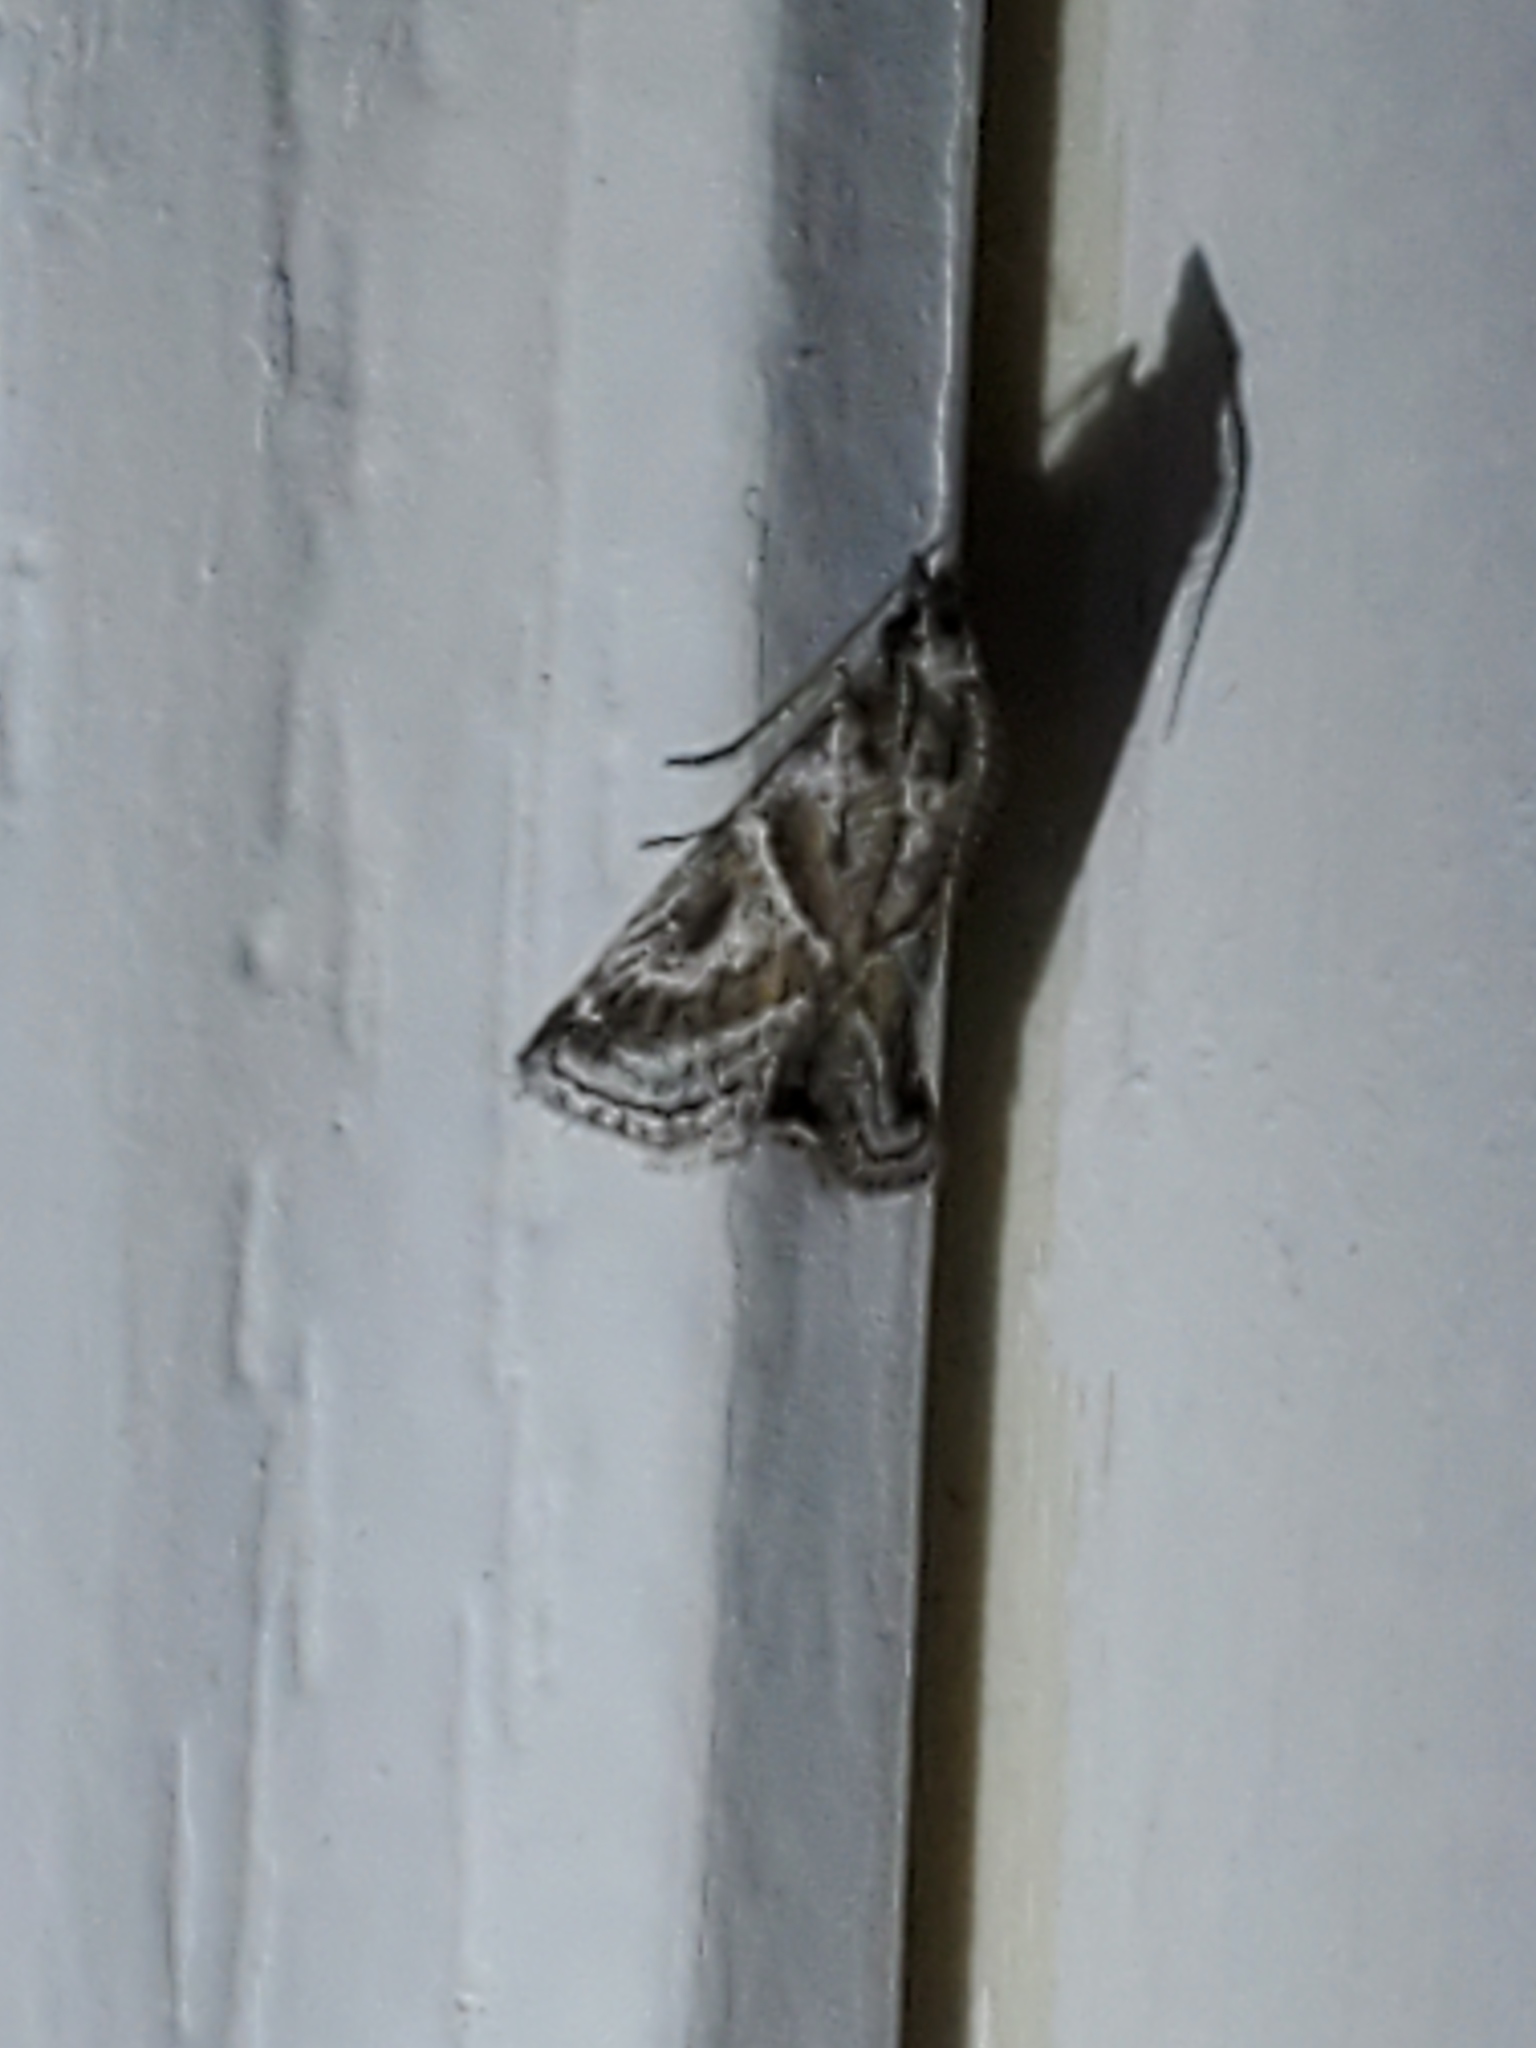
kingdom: Animalia
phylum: Arthropoda
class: Insecta
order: Lepidoptera
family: Pyralidae
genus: Alpheias
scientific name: Alpheias Decaturia pectinalis
